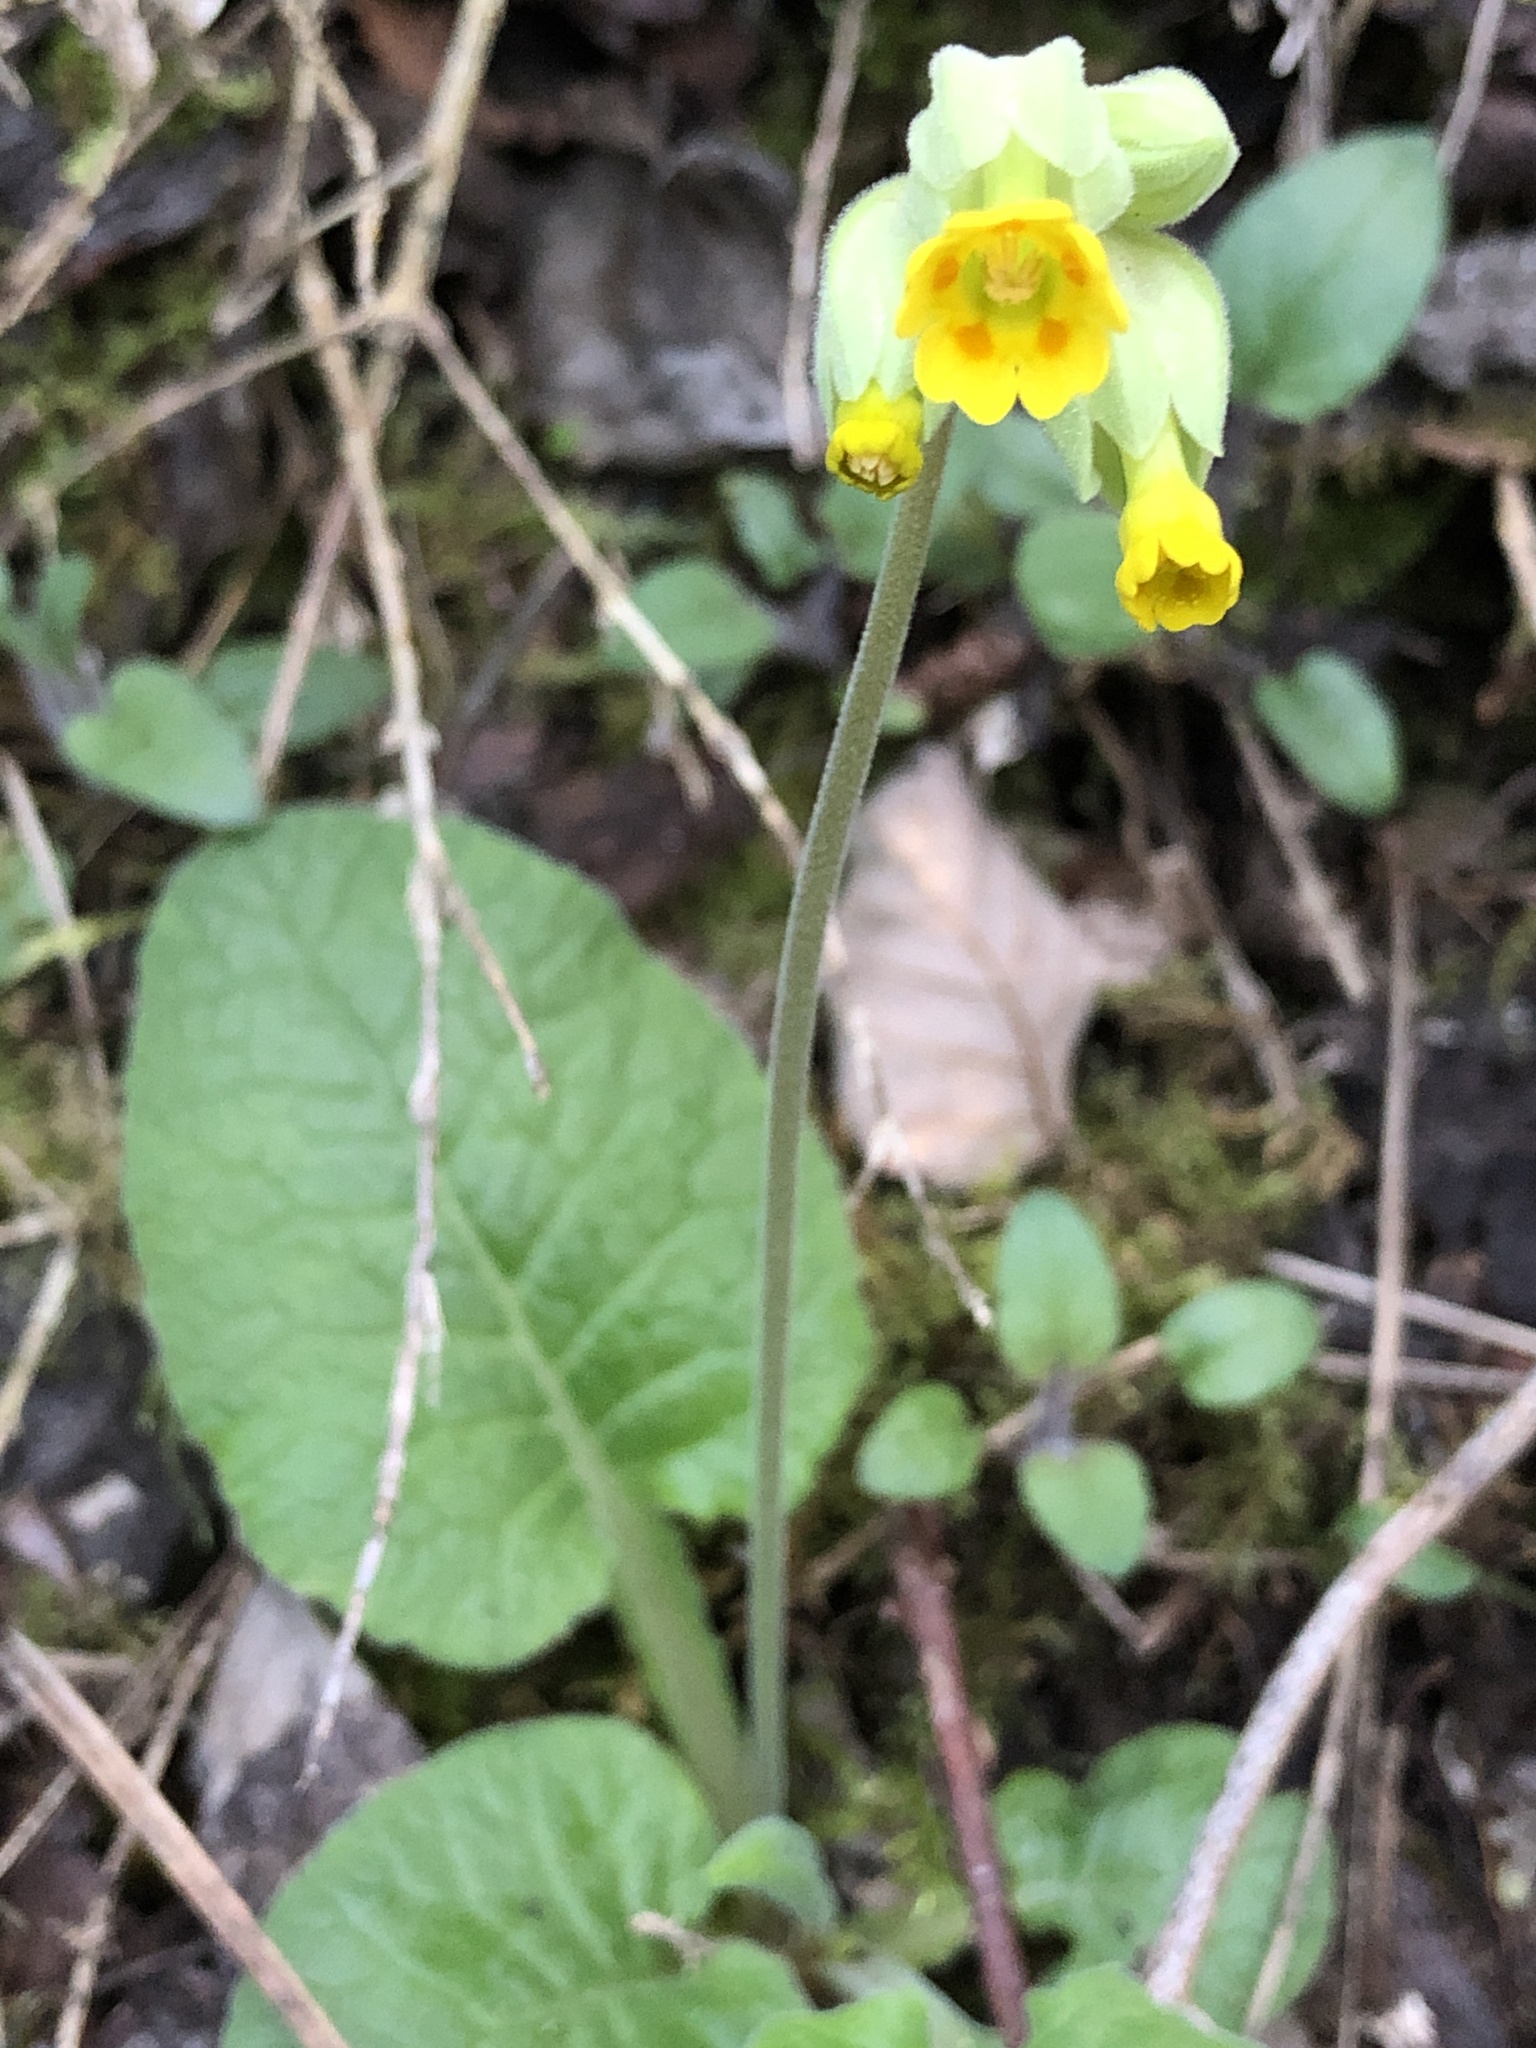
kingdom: Plantae
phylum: Tracheophyta
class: Magnoliopsida
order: Ericales
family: Primulaceae
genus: Primula
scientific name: Primula veris
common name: Cowslip
